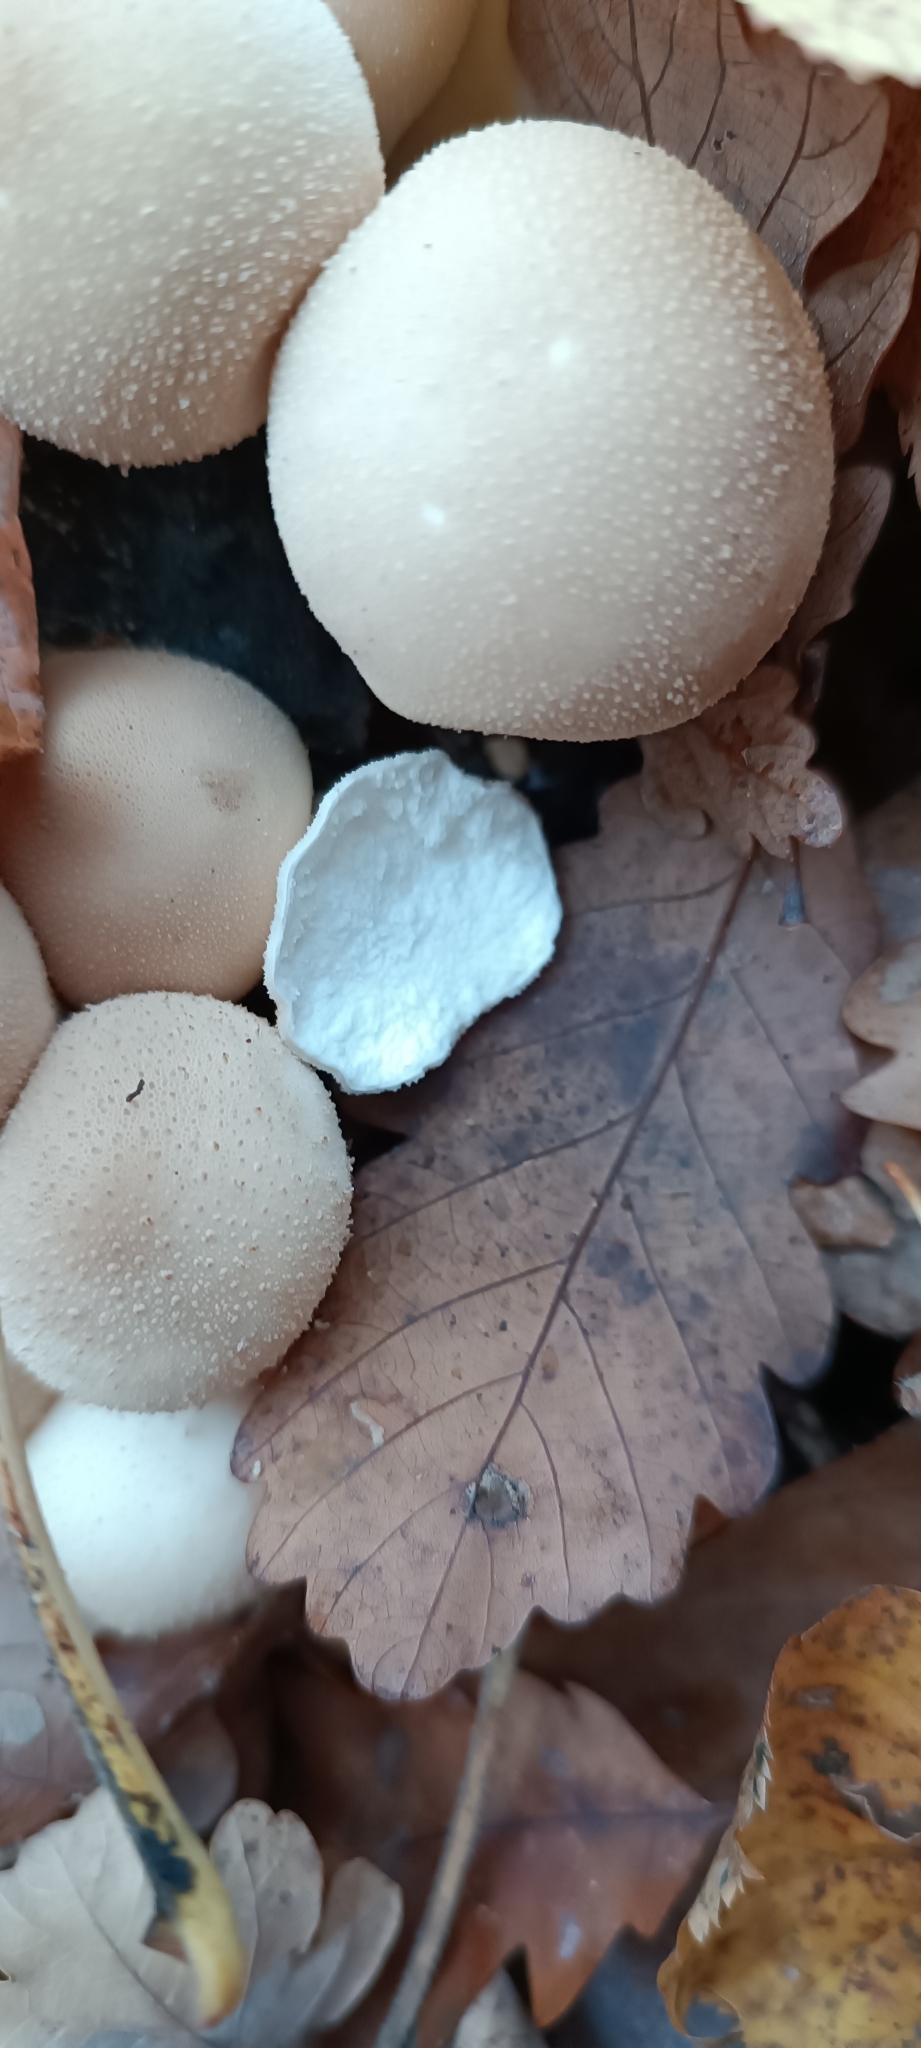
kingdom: Fungi
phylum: Basidiomycota
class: Agaricomycetes
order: Agaricales
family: Lycoperdaceae
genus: Apioperdon
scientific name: Apioperdon pyriforme
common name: Pear-shaped puffball
